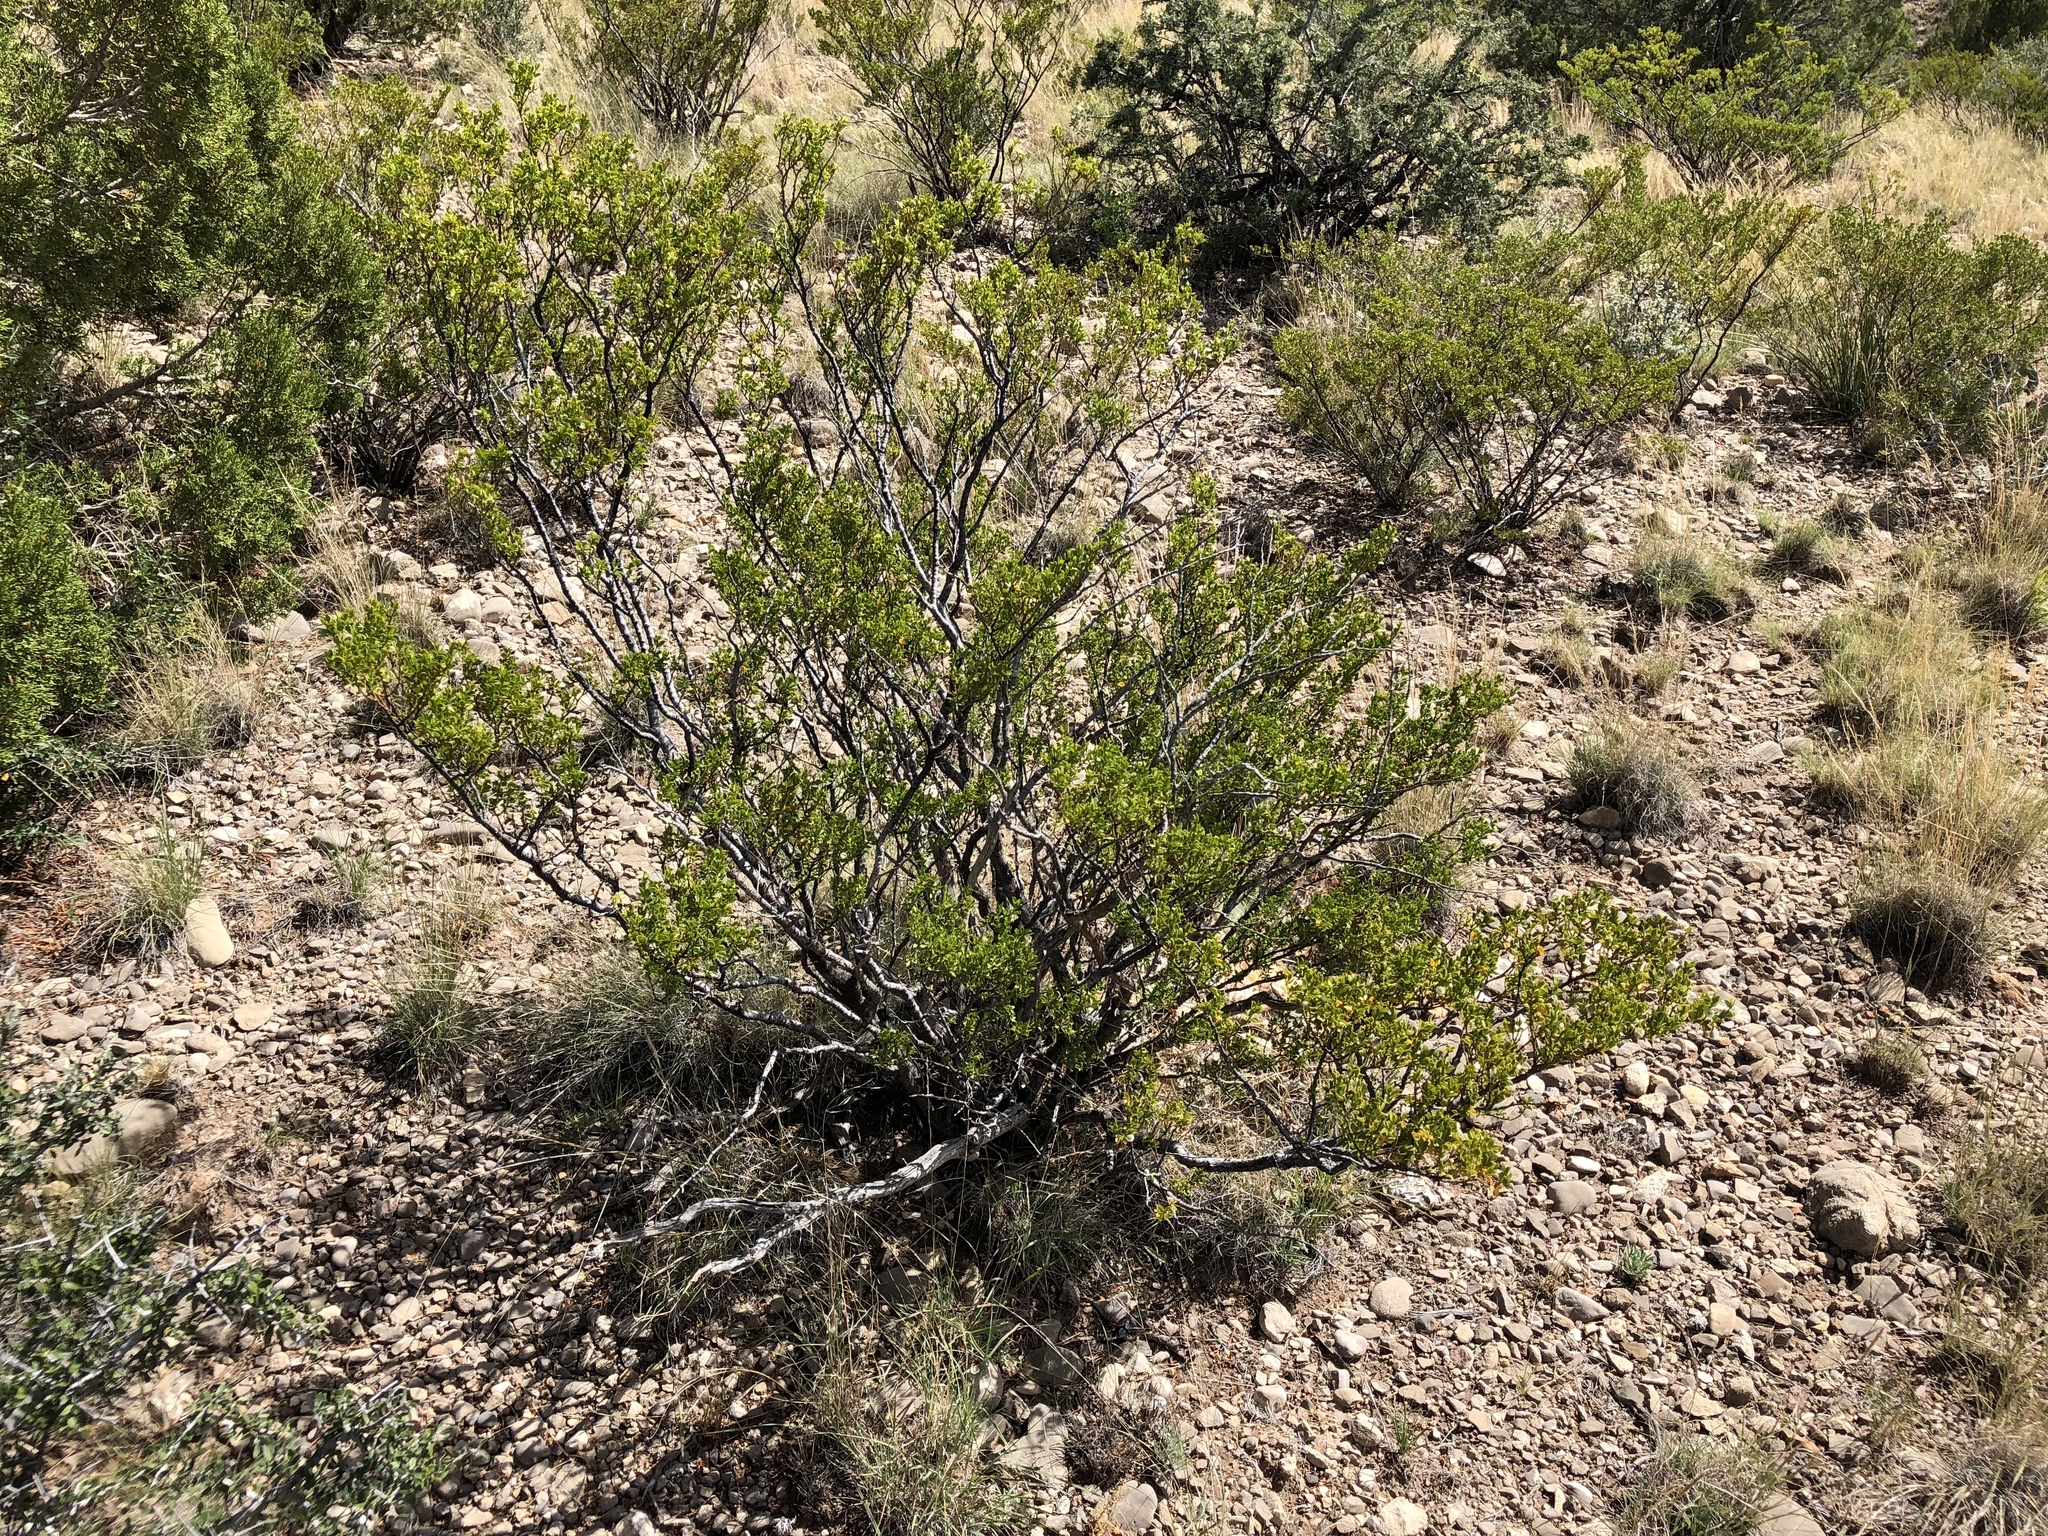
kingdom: Plantae
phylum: Tracheophyta
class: Magnoliopsida
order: Zygophyllales
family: Zygophyllaceae
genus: Larrea
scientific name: Larrea tridentata
